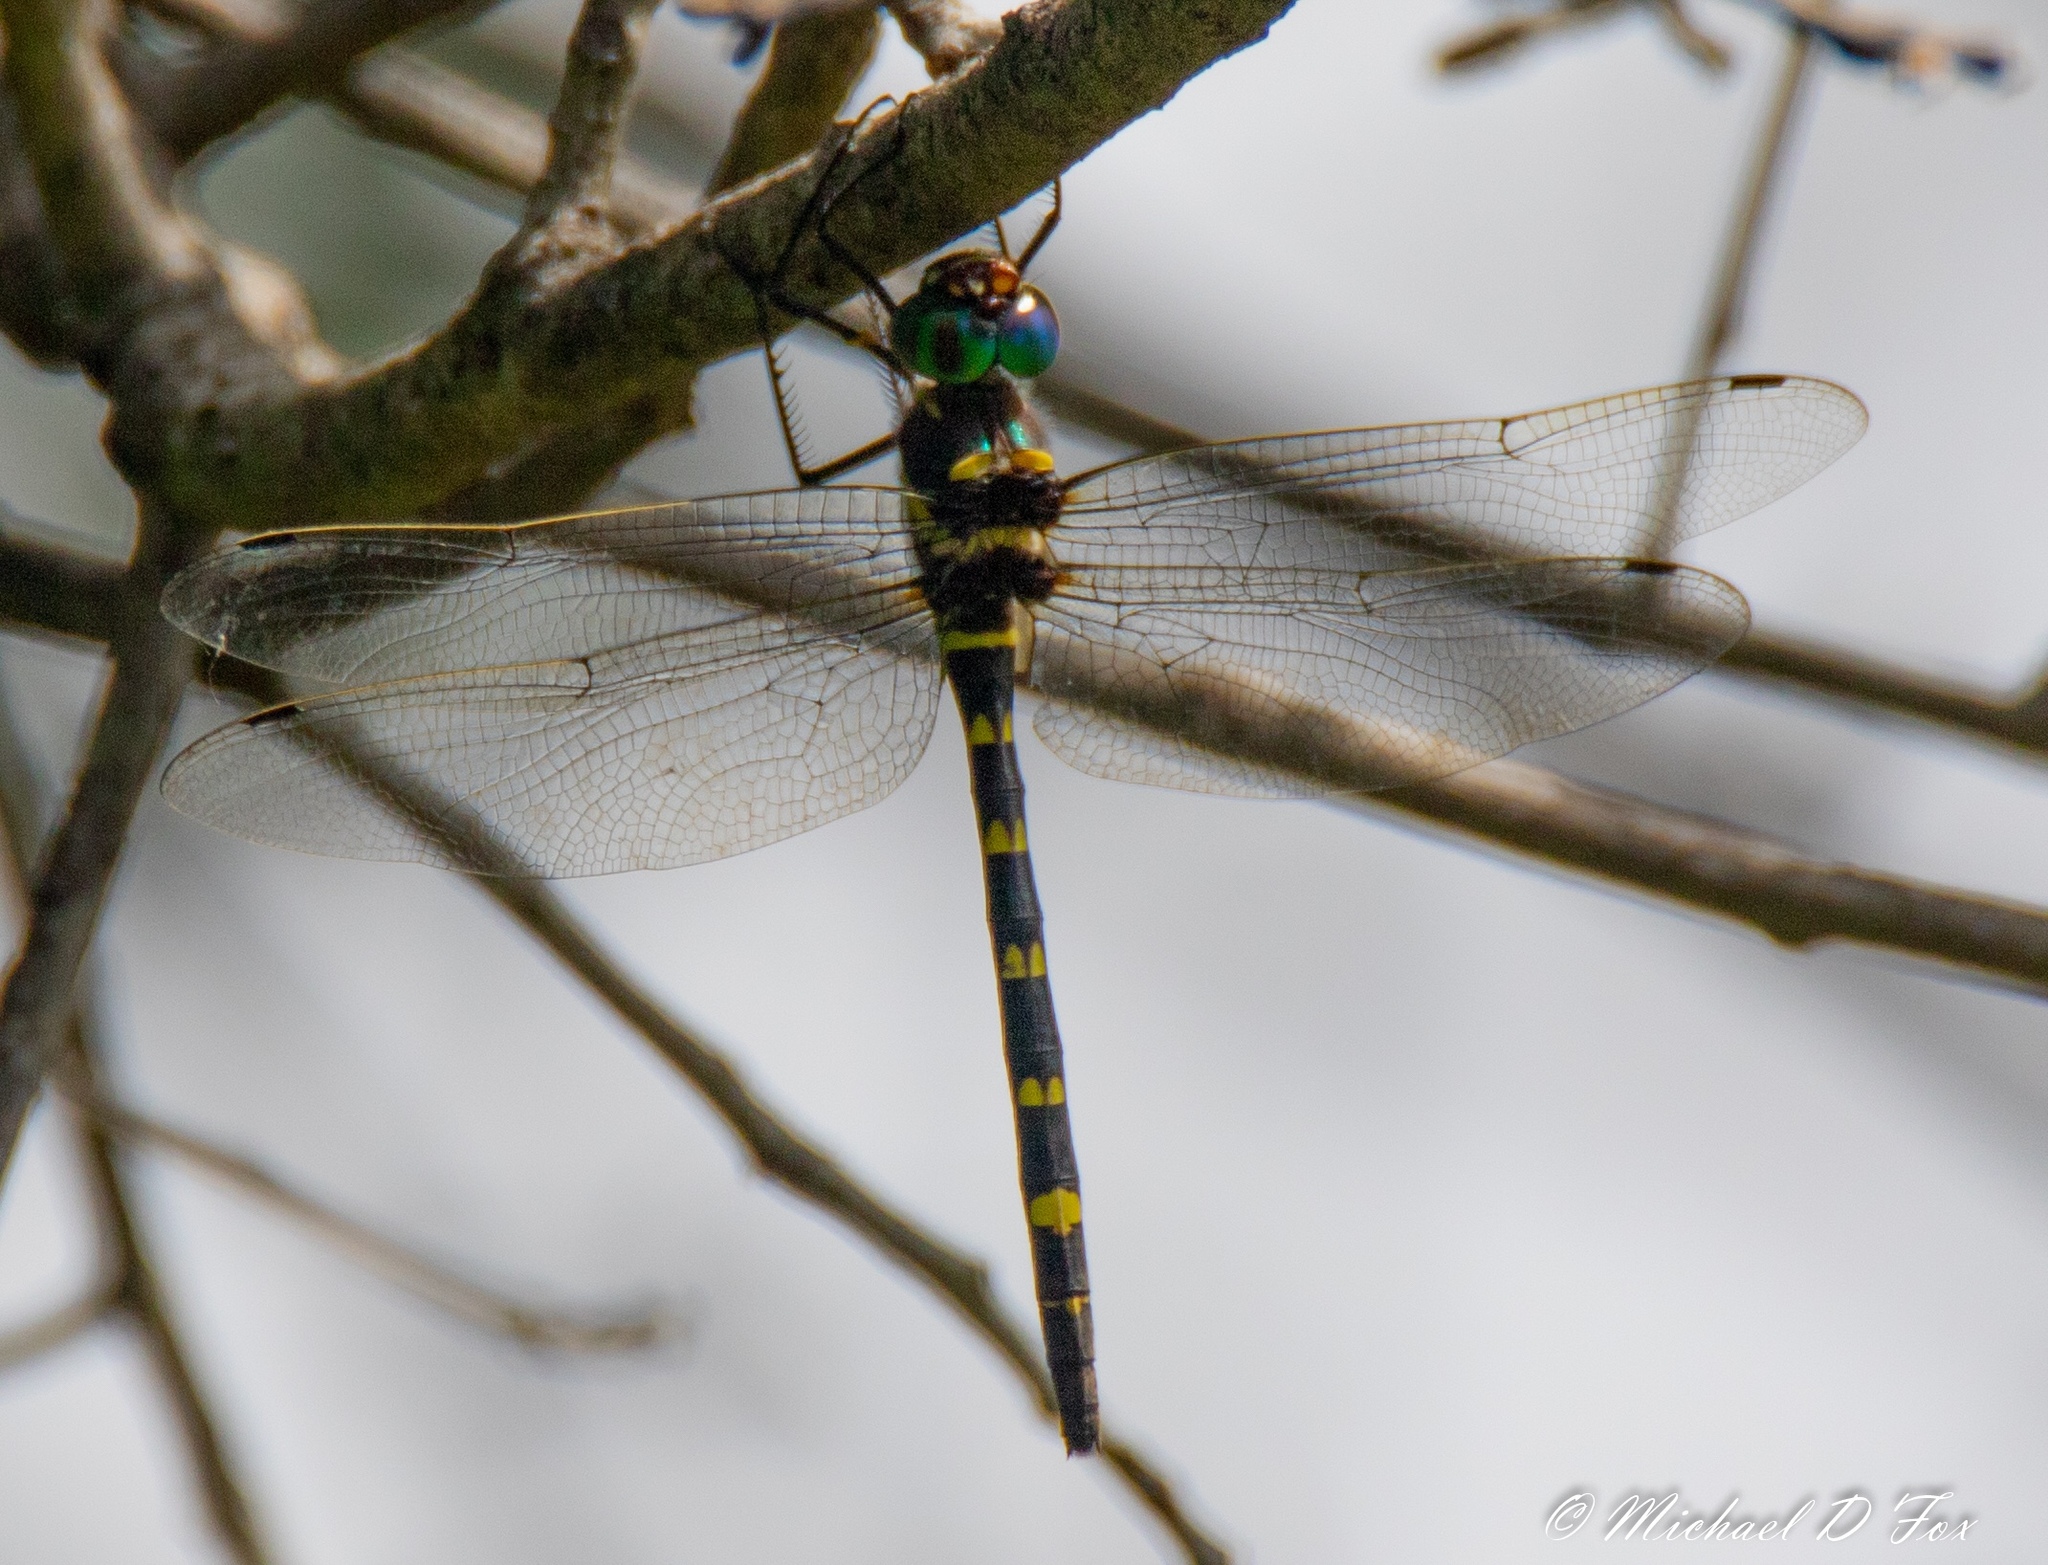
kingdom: Animalia
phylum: Arthropoda
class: Insecta
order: Odonata
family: Macromiidae
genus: Macromia
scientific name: Macromia illinoiensis
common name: Swift river cruiser
